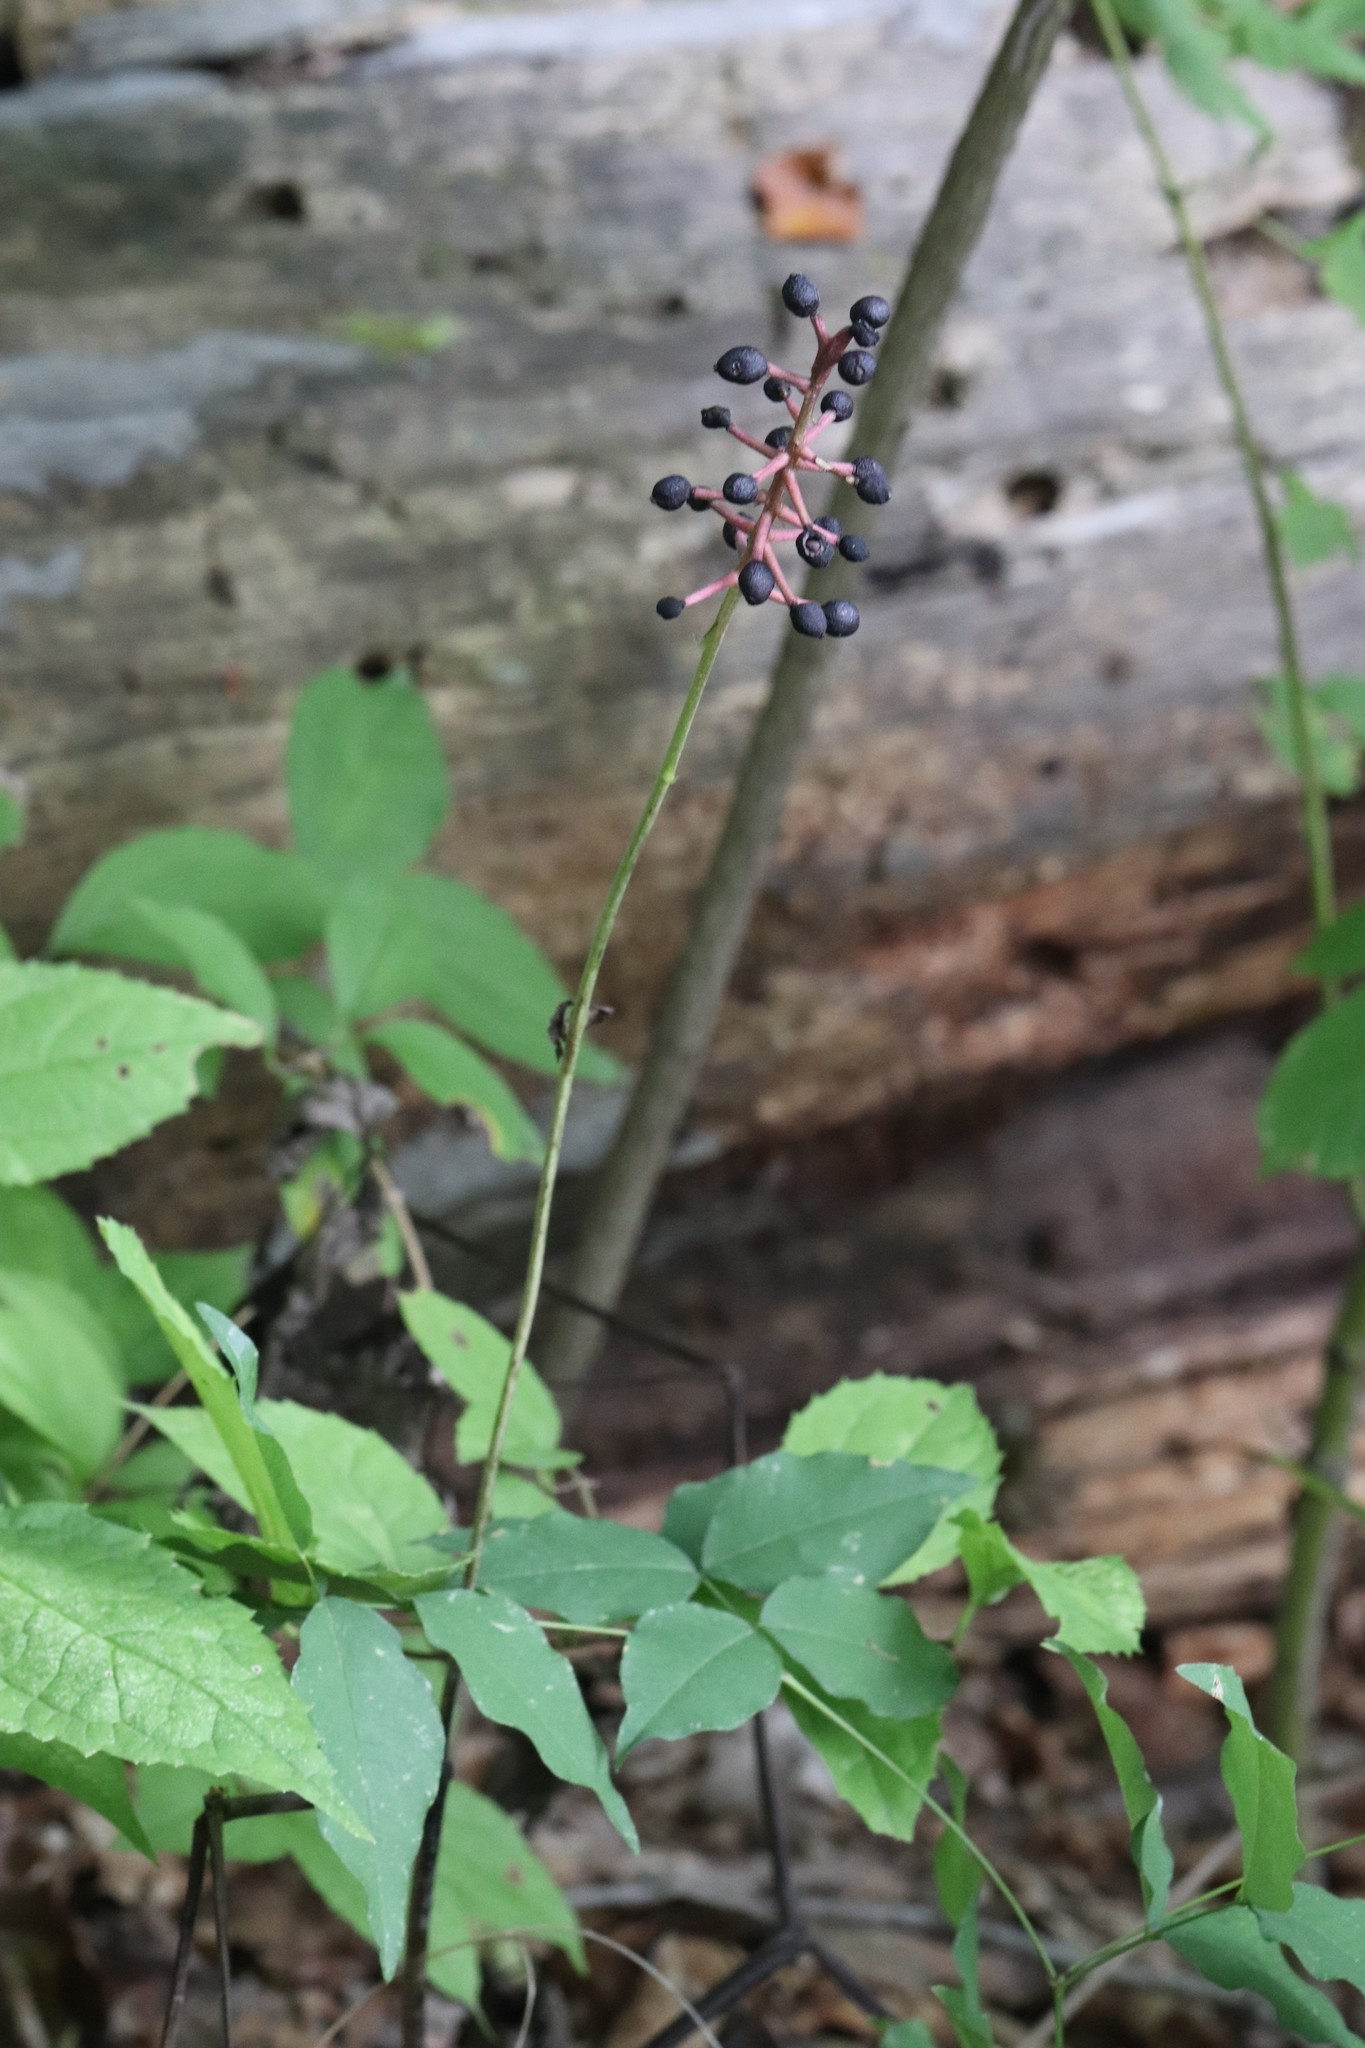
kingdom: Plantae
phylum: Tracheophyta
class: Magnoliopsida
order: Ranunculales
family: Ranunculaceae
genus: Actaea
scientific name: Actaea spicata
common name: Baneberry
